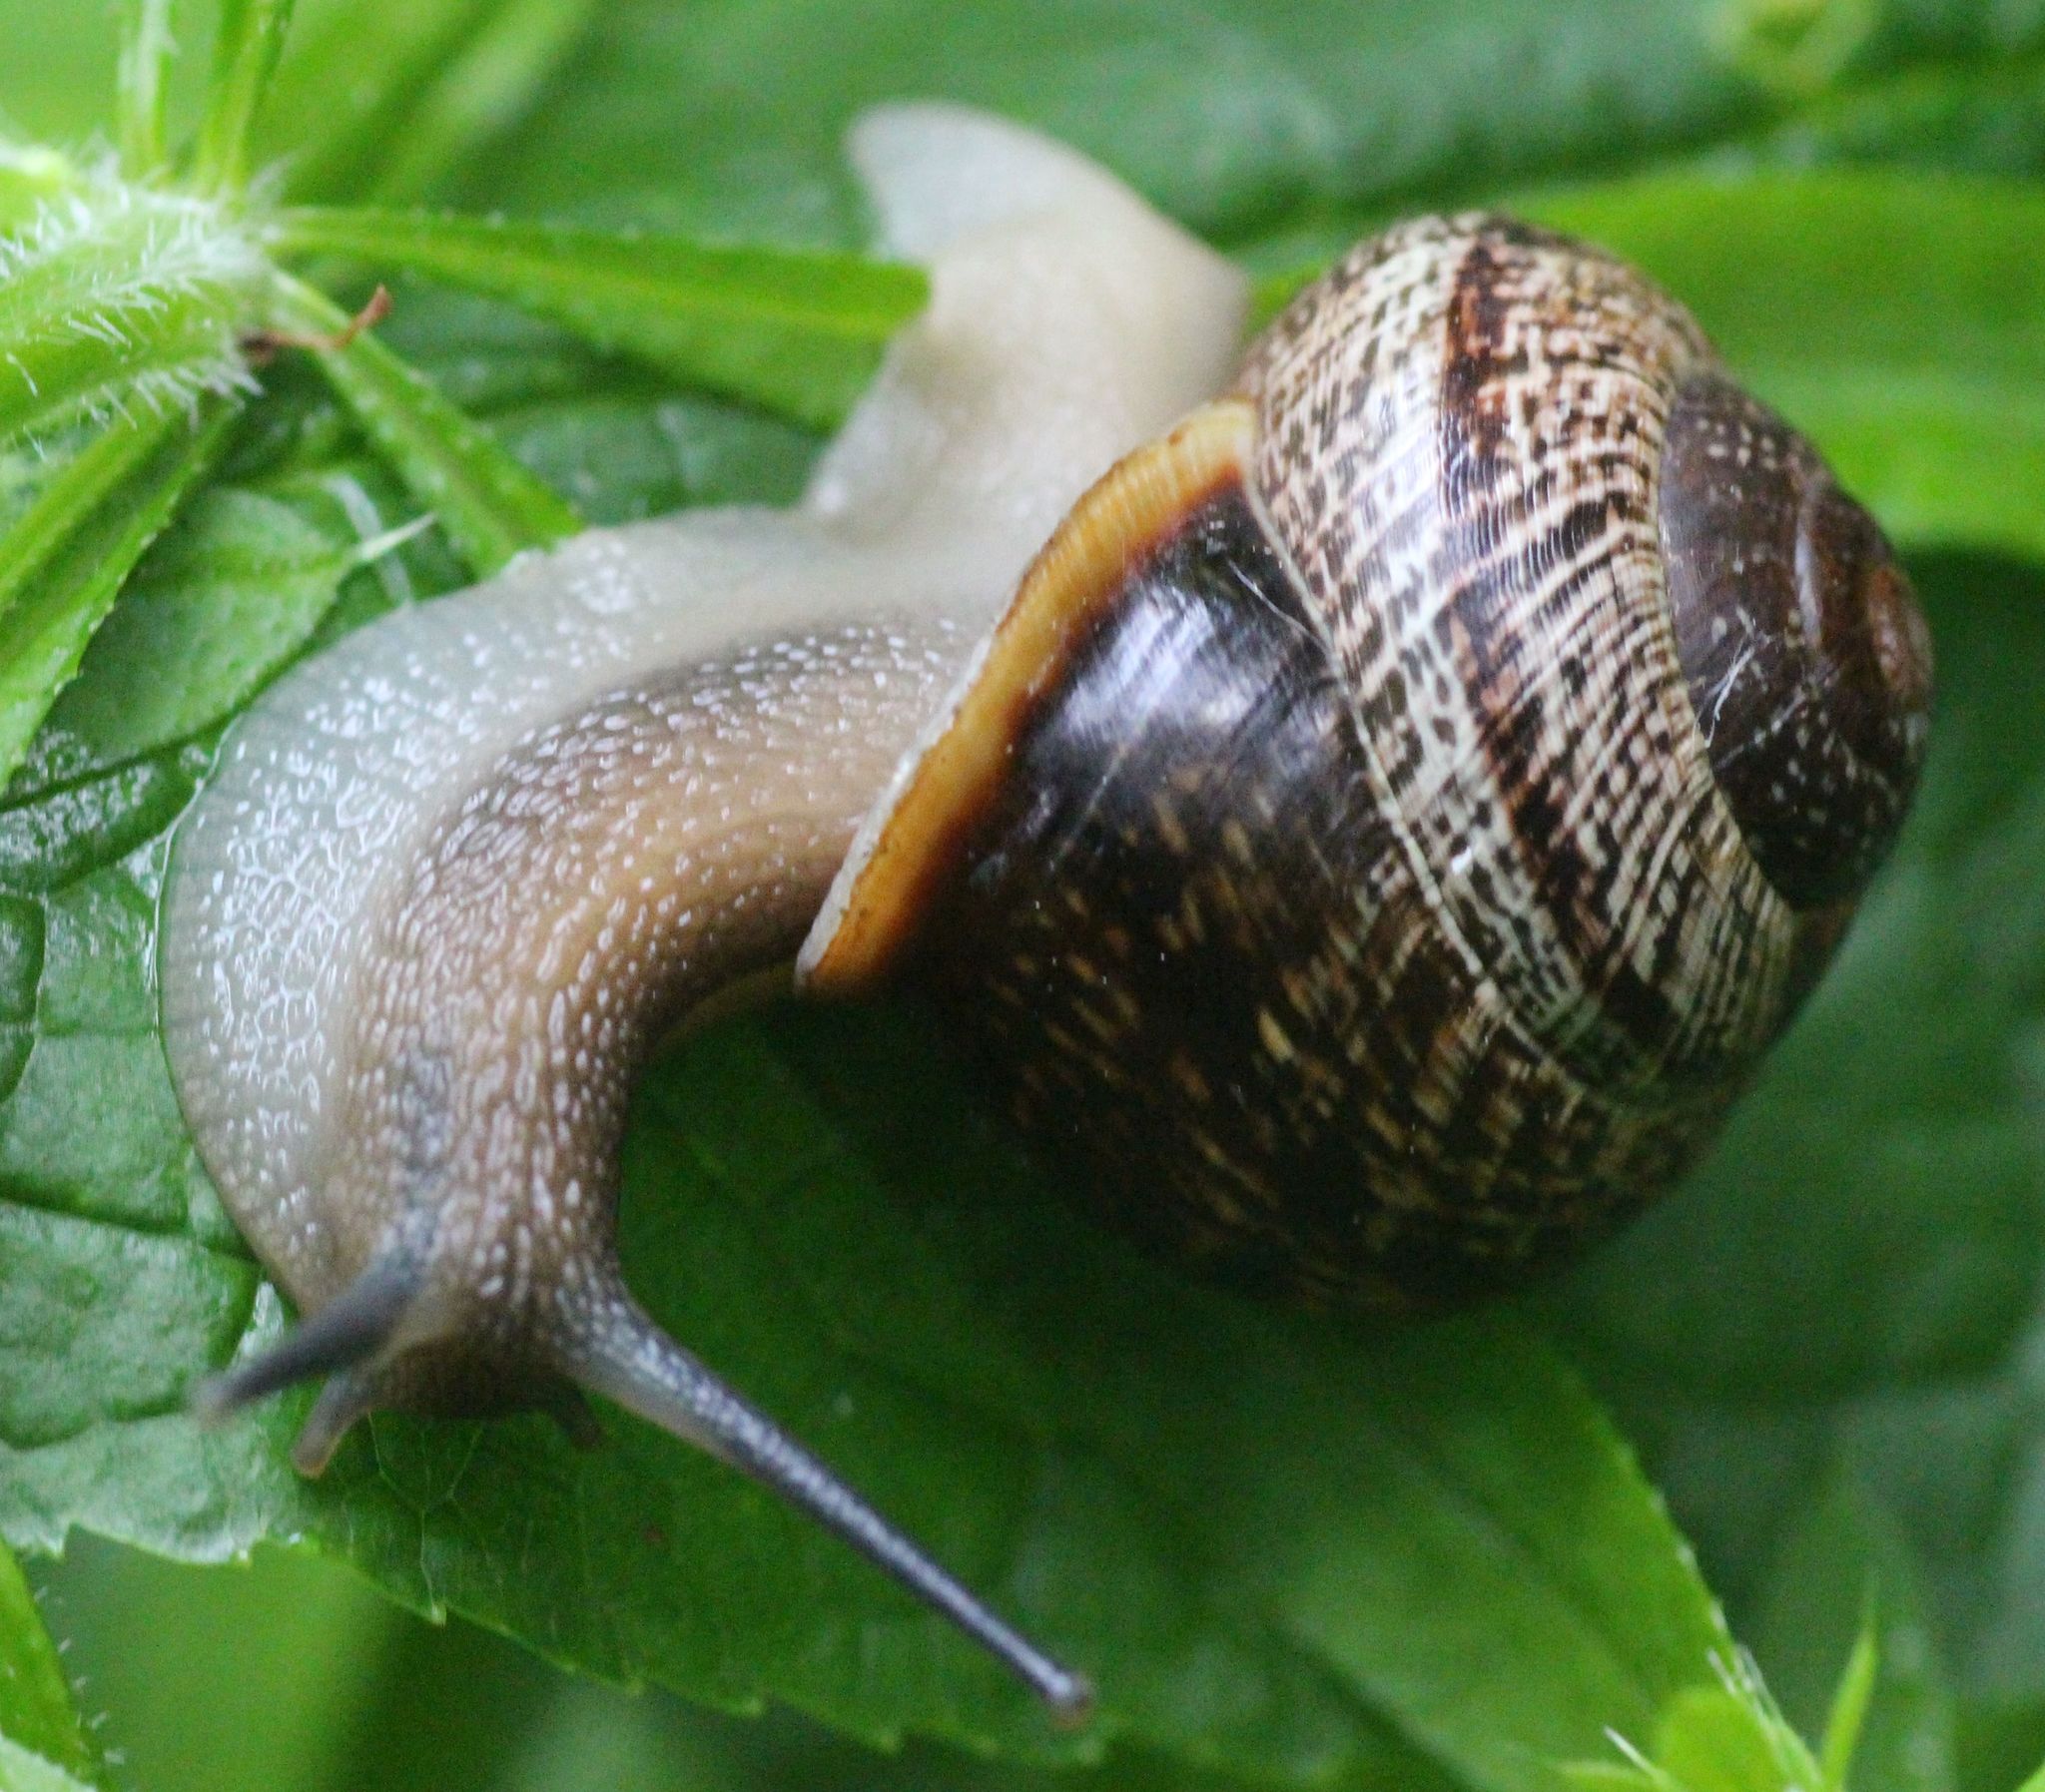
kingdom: Animalia
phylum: Mollusca
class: Gastropoda
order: Stylommatophora
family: Helicidae
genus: Arianta
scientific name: Arianta arbustorum
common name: Copse snail
